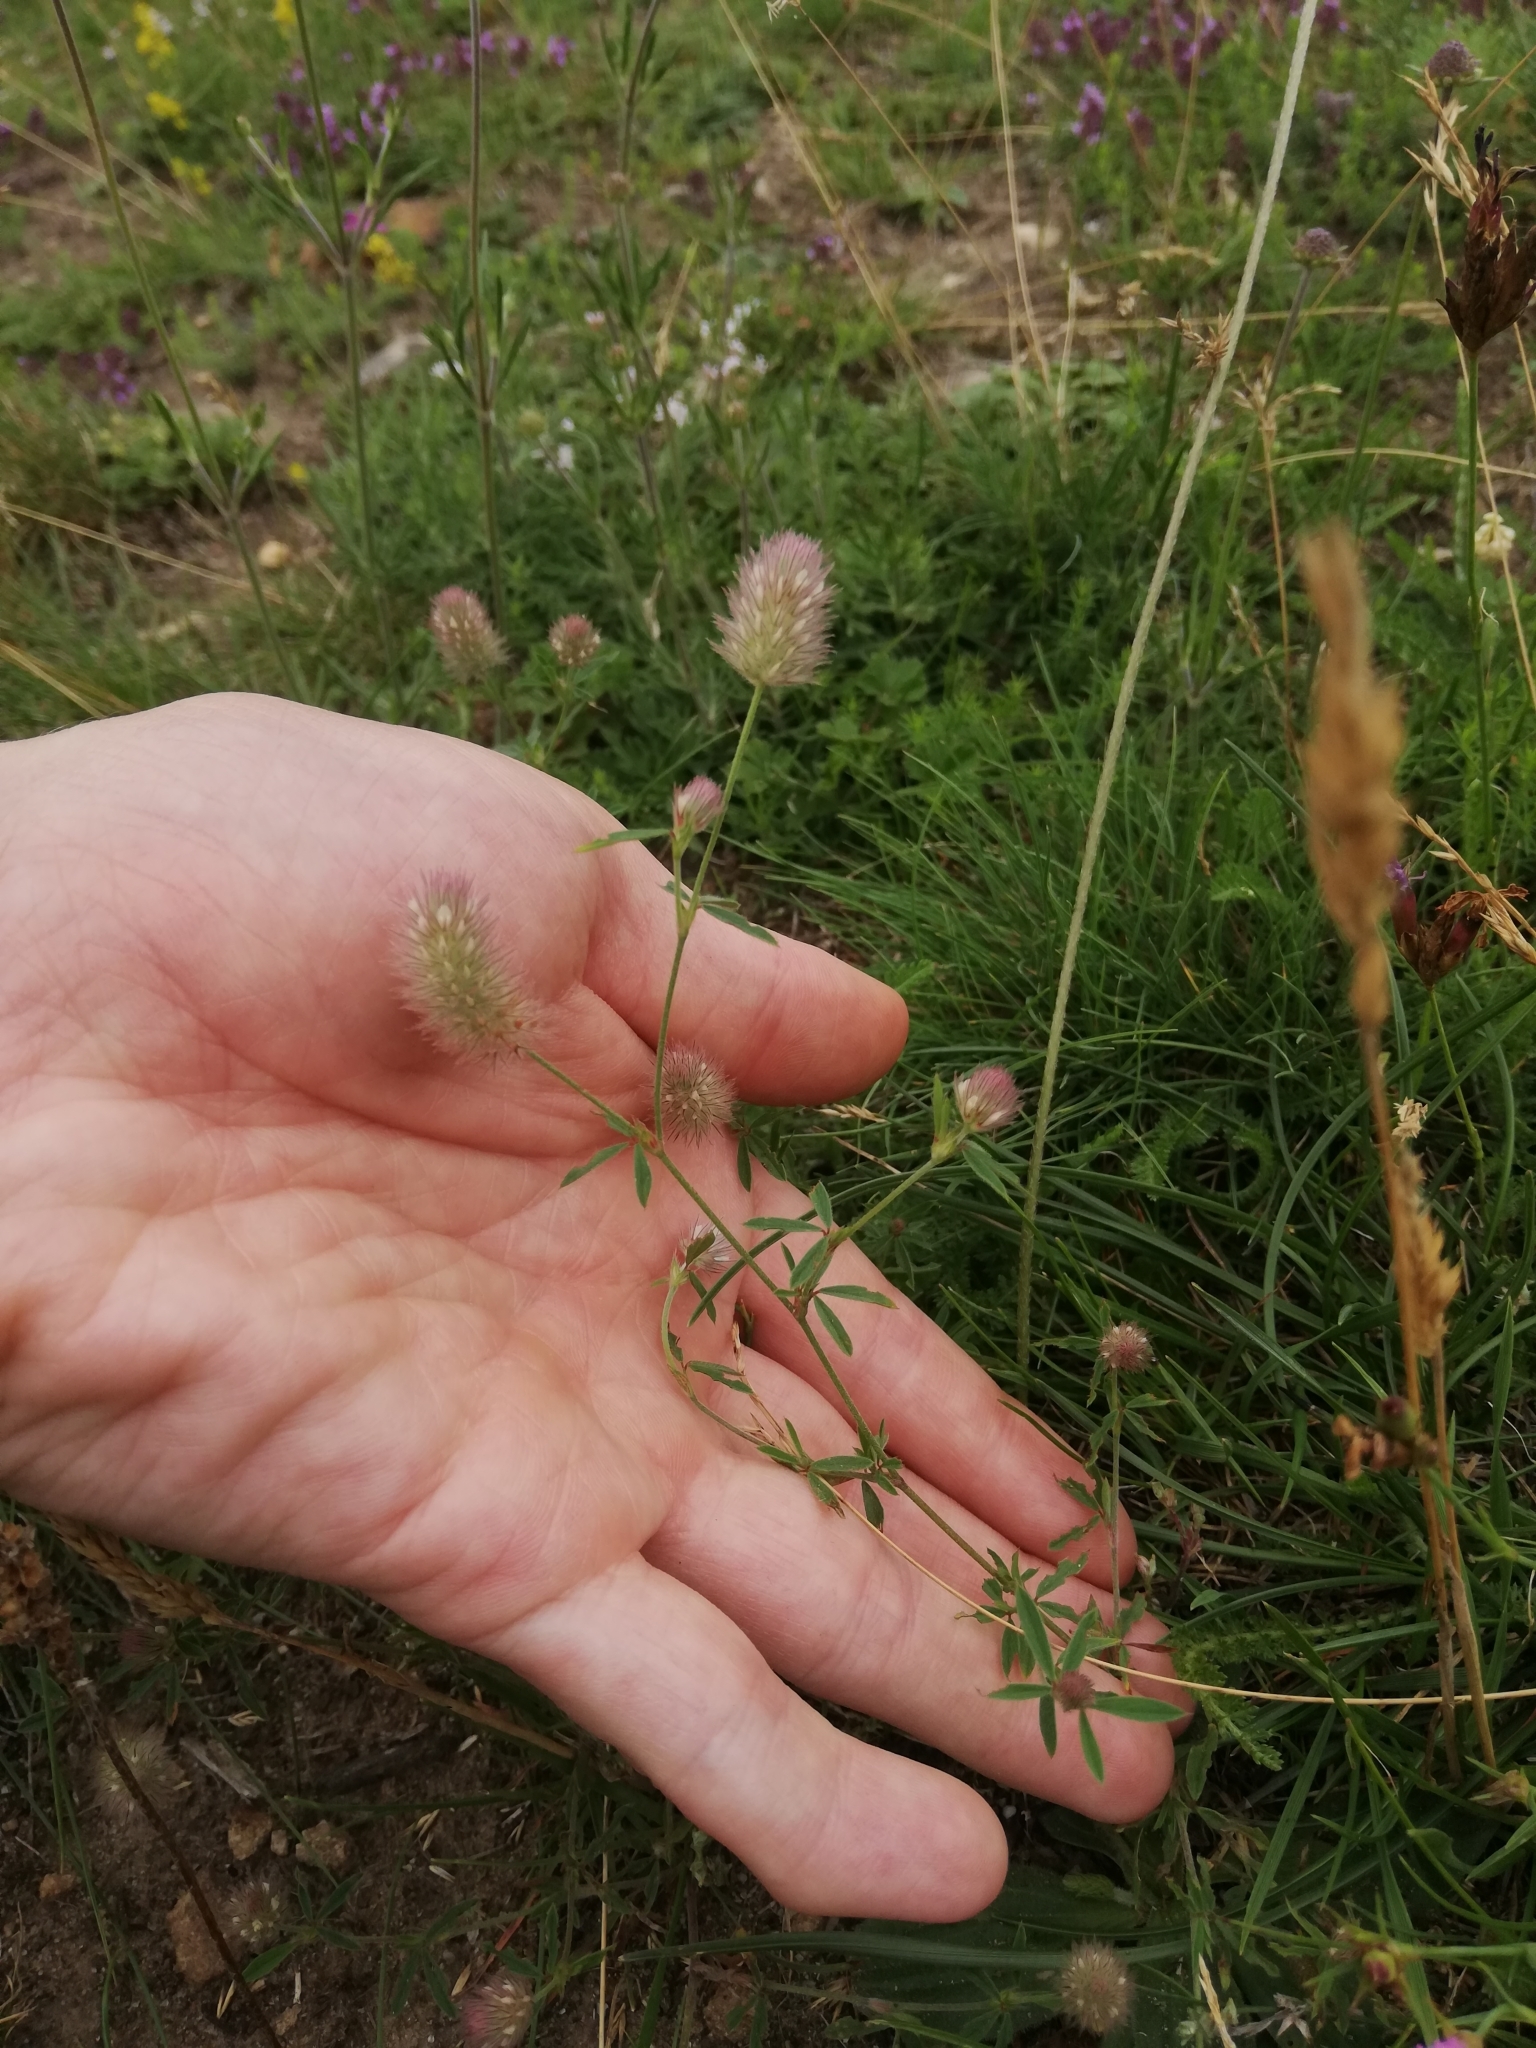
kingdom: Plantae
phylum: Tracheophyta
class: Magnoliopsida
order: Fabales
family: Fabaceae
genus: Trifolium
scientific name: Trifolium arvense
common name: Hare's-foot clover
